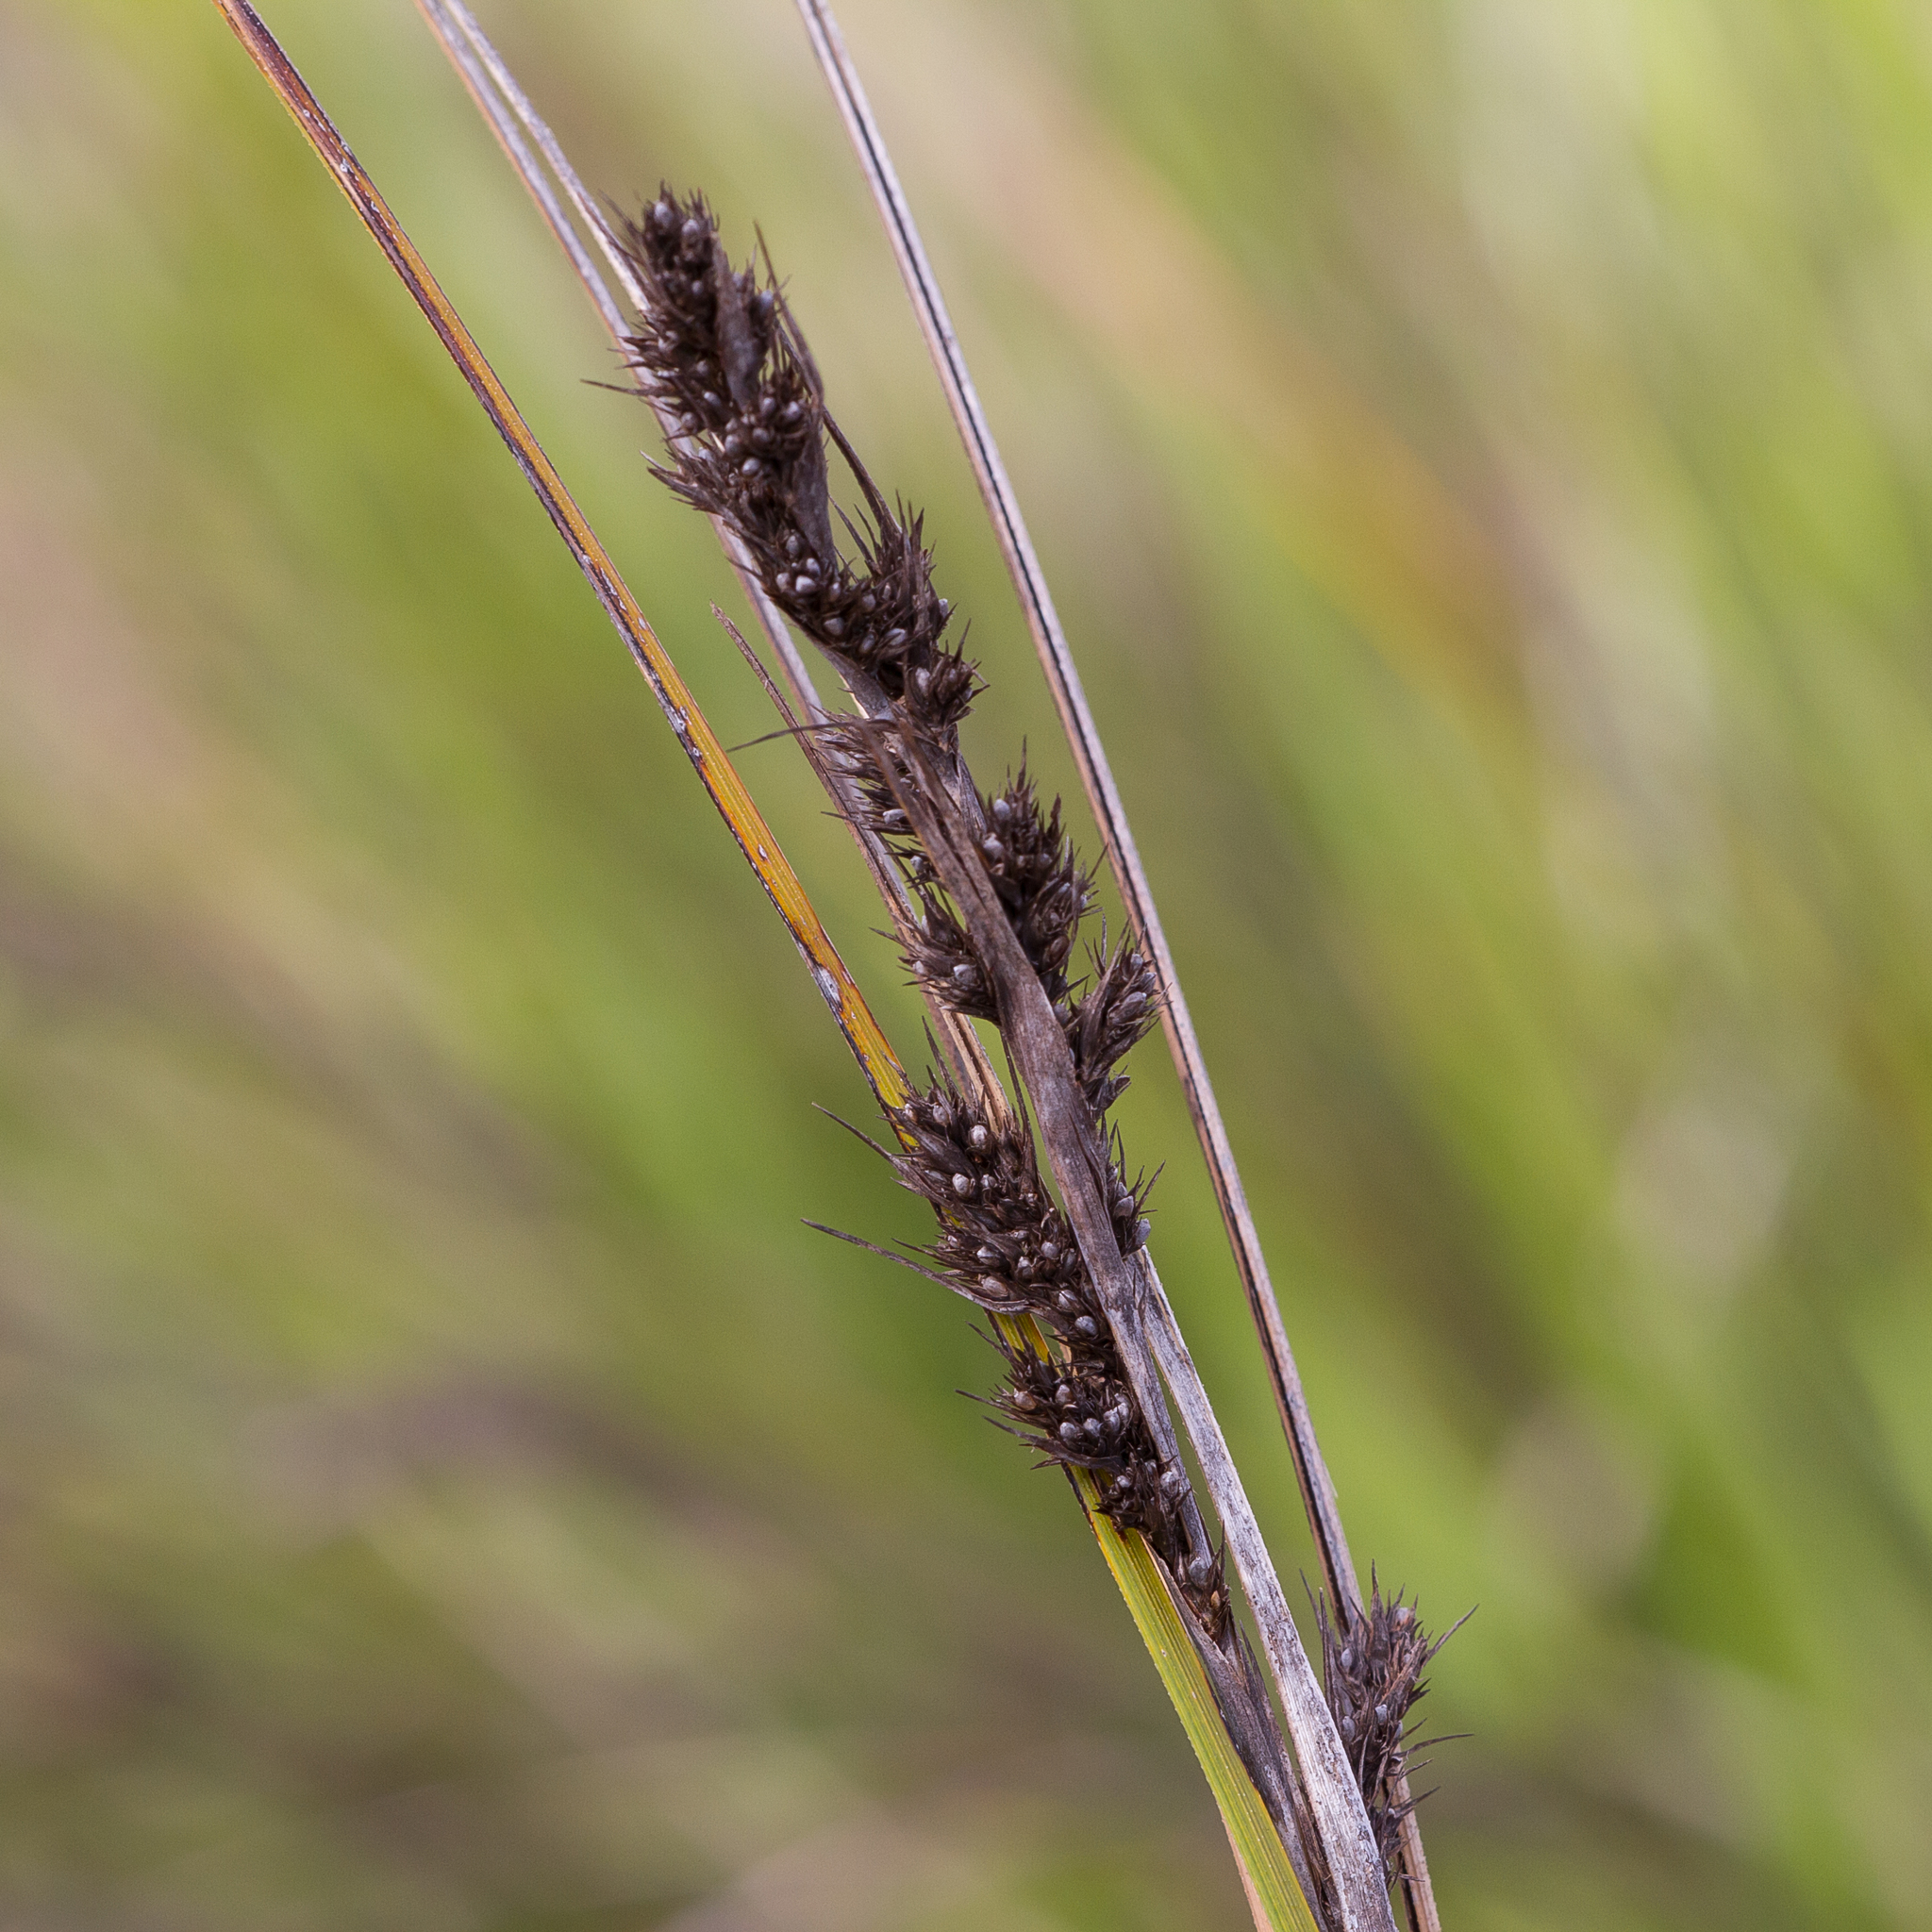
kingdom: Plantae
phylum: Tracheophyta
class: Liliopsida
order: Poales
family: Cyperaceae
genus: Gahnia
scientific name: Gahnia deusta
